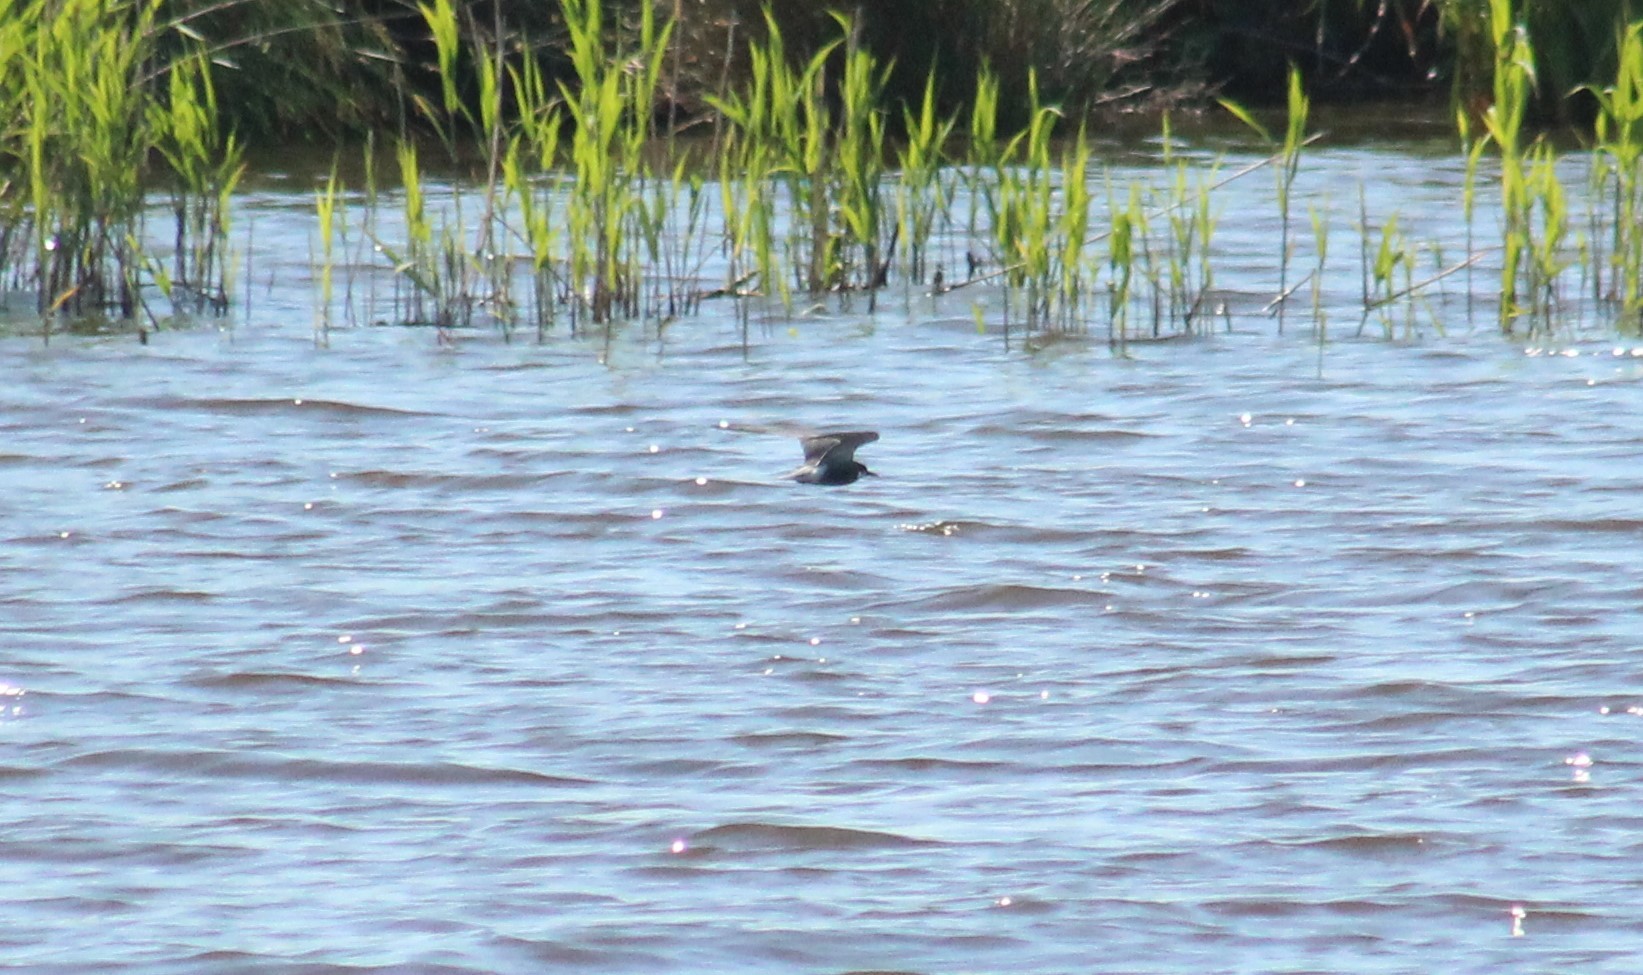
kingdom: Animalia
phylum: Chordata
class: Aves
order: Charadriiformes
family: Laridae
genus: Chlidonias
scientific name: Chlidonias niger
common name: Black tern
